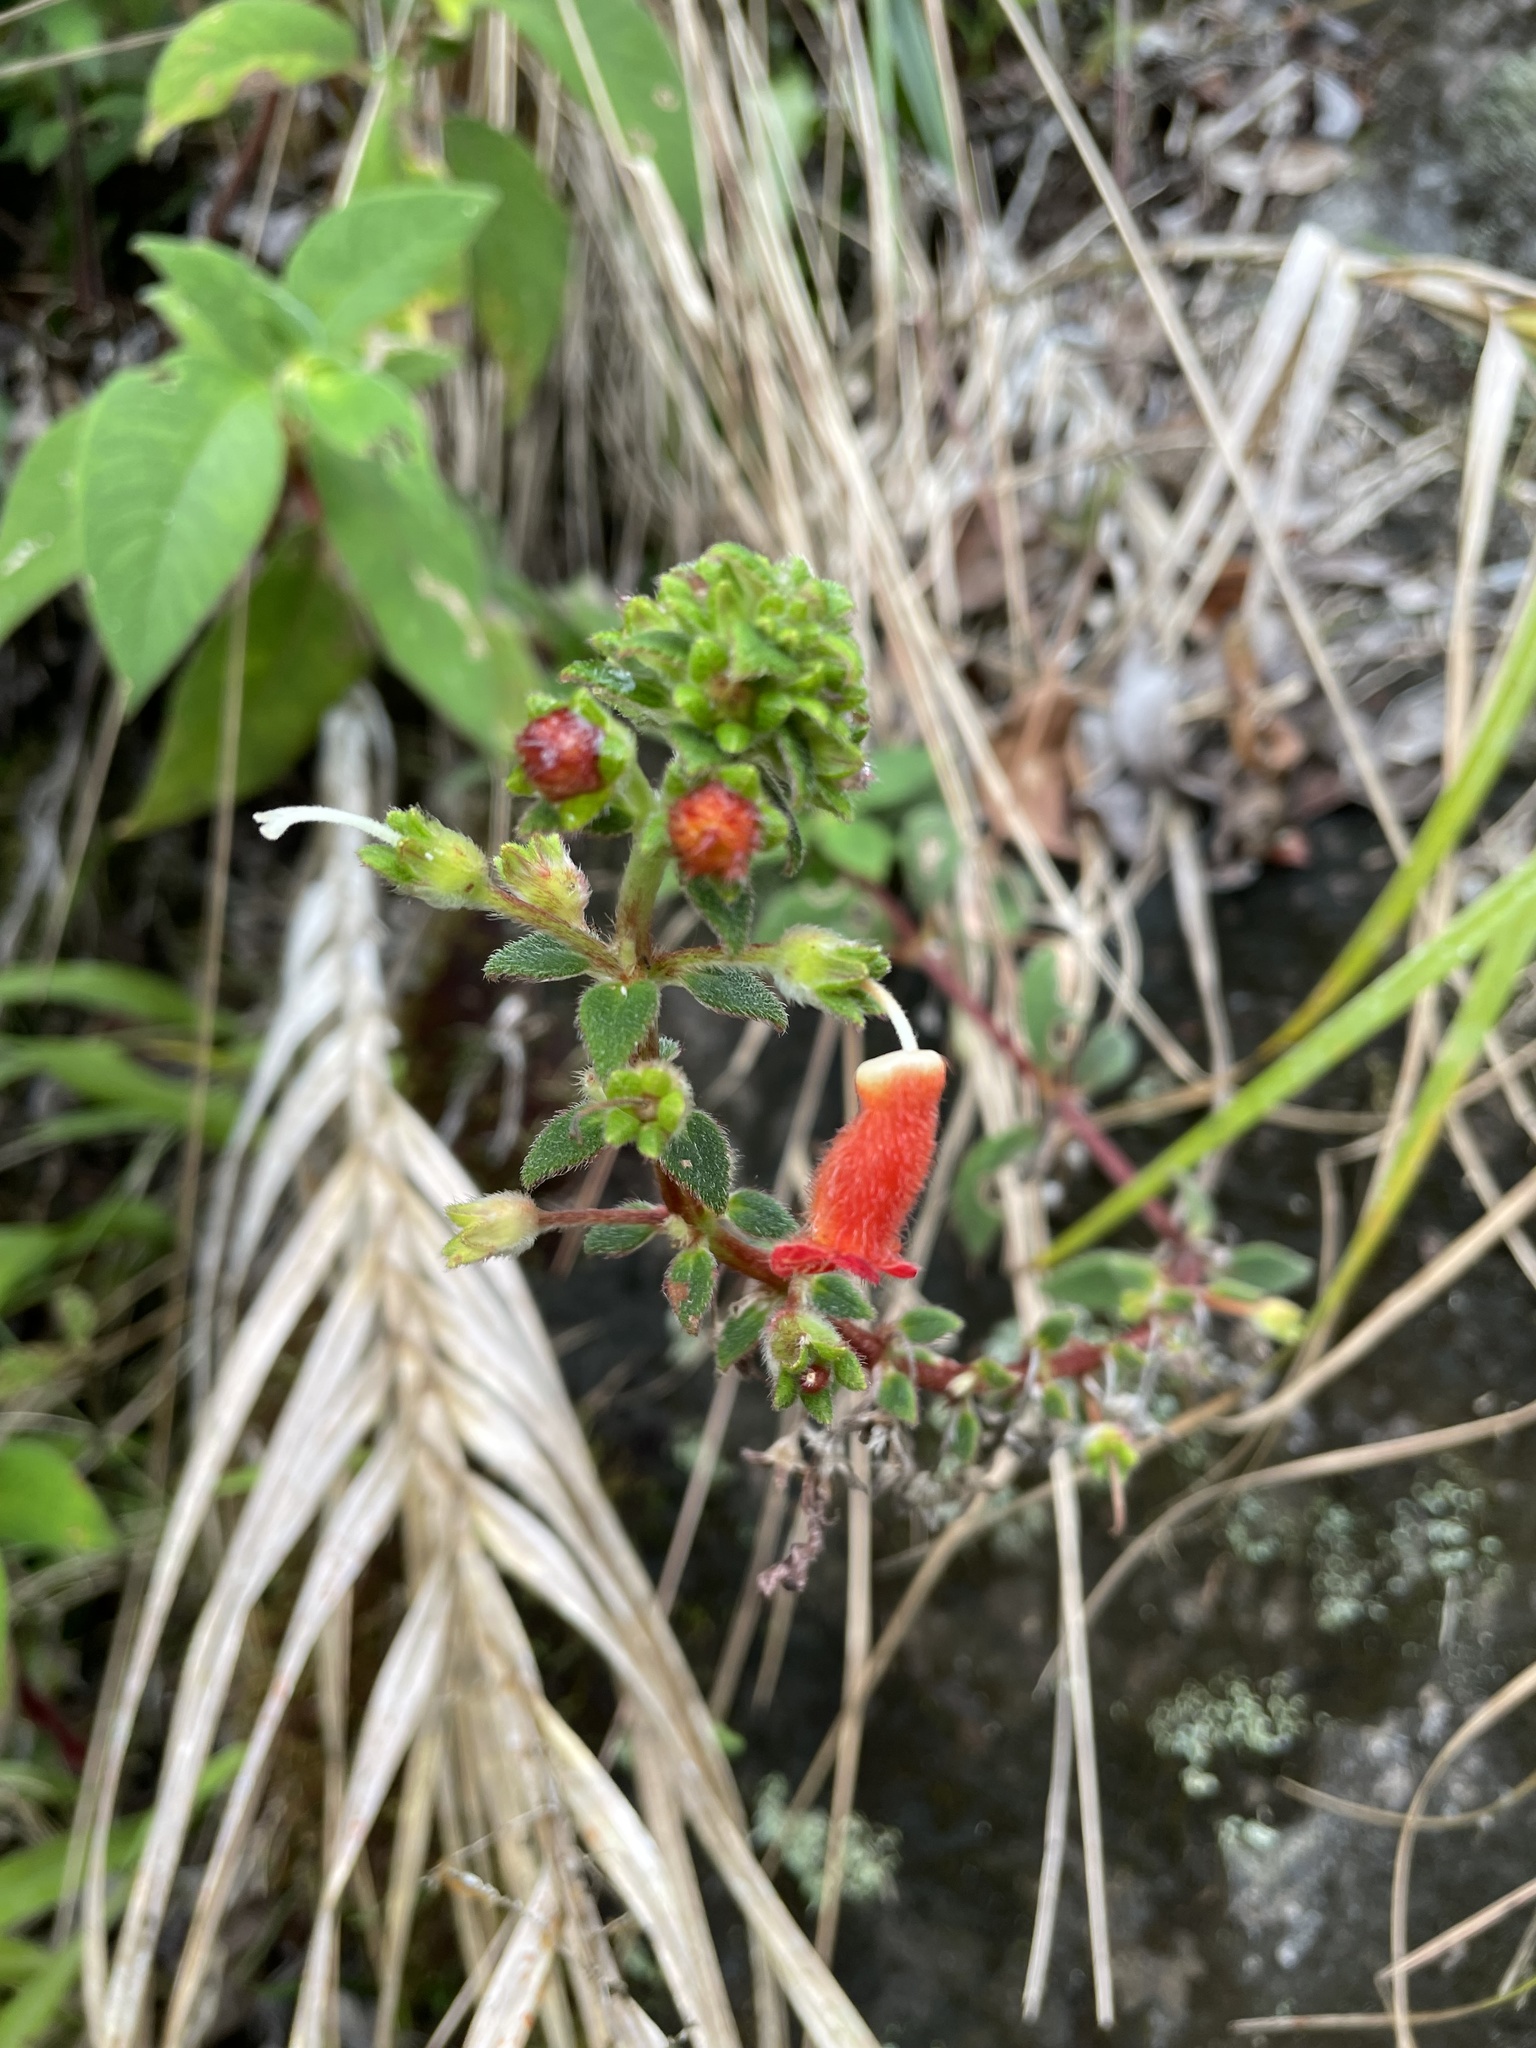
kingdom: Plantae
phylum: Tracheophyta
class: Magnoliopsida
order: Lamiales
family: Gesneriaceae
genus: Kohleria
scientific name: Kohleria spicata
